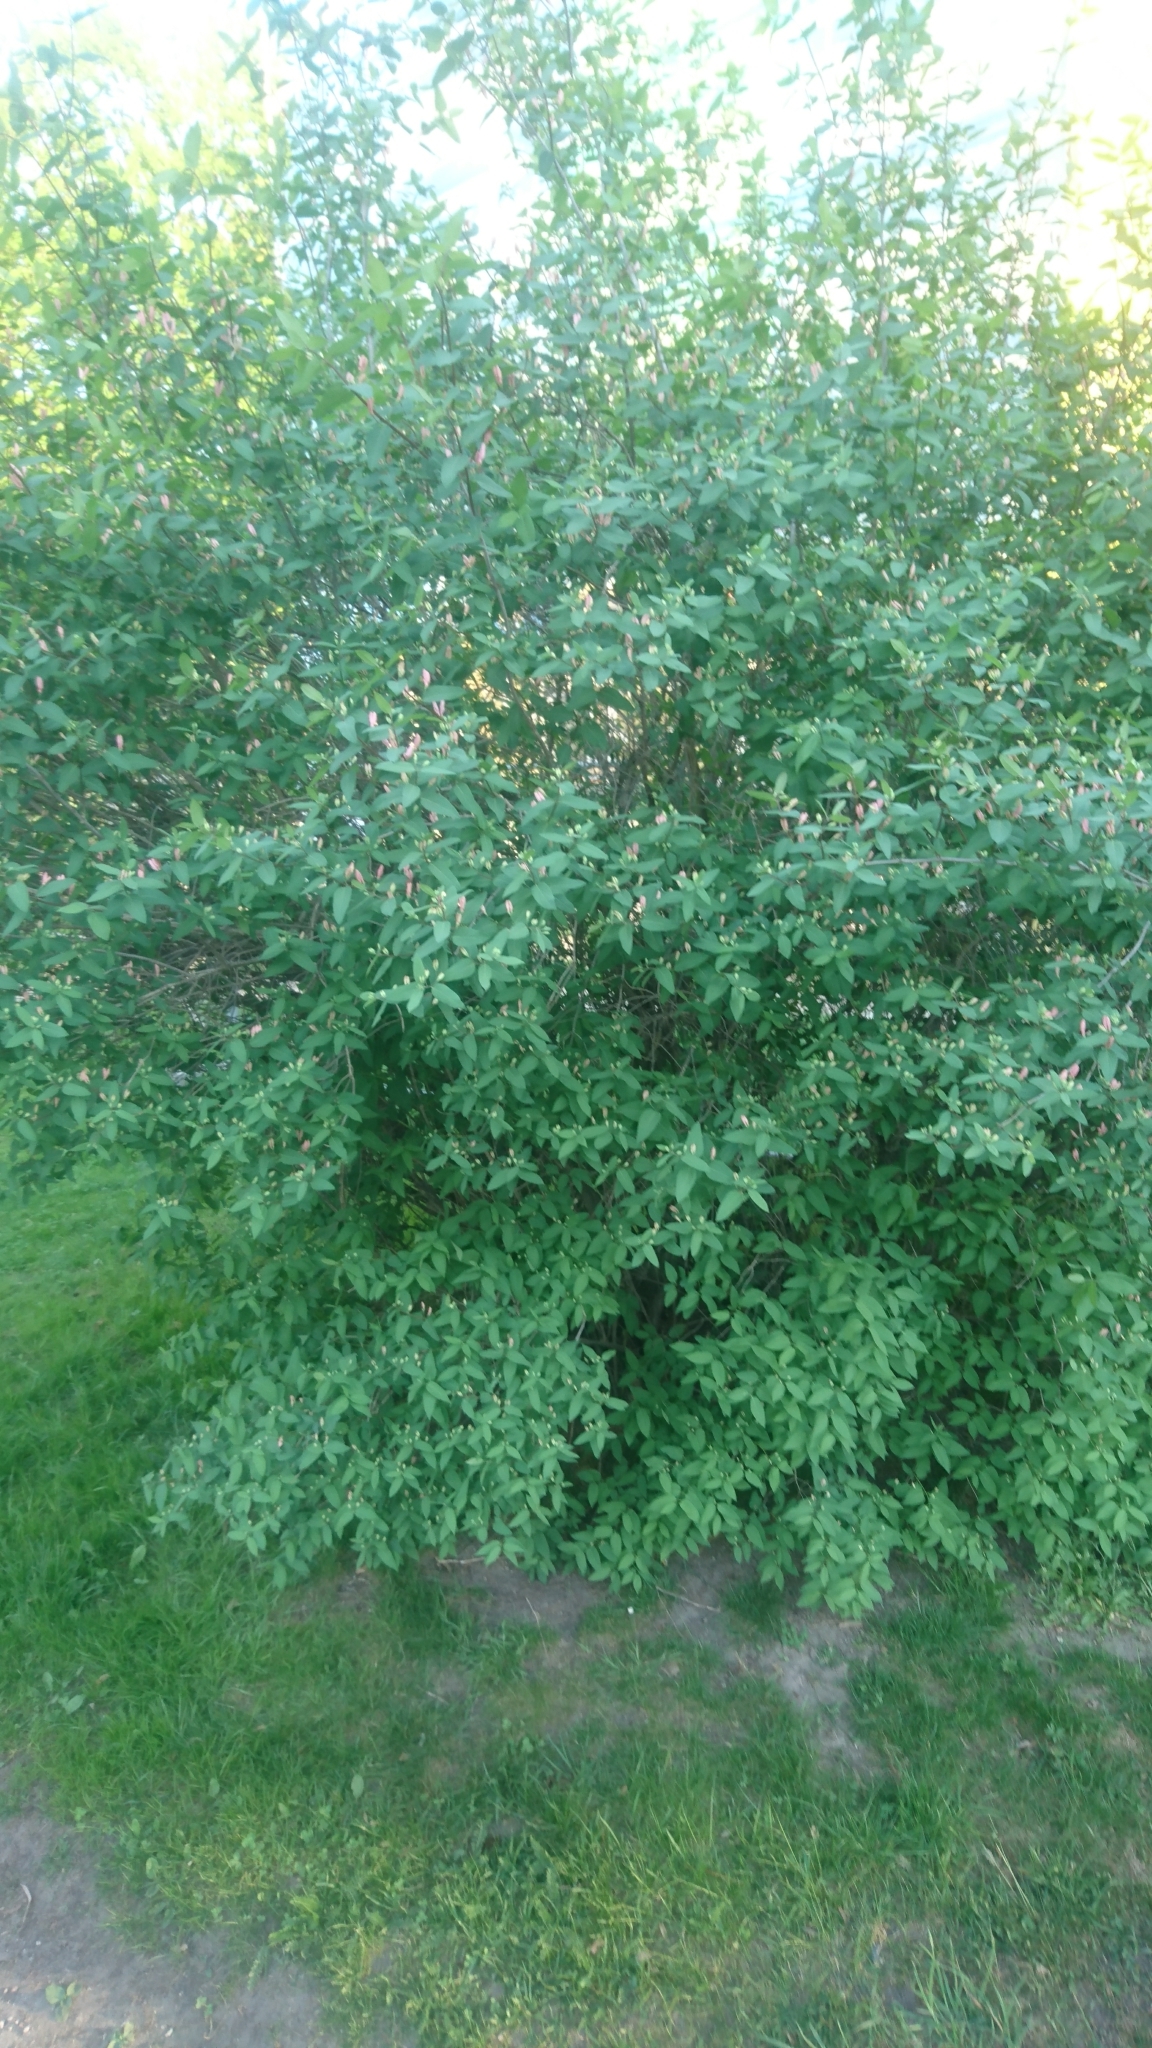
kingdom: Plantae
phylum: Tracheophyta
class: Magnoliopsida
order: Dipsacales
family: Caprifoliaceae
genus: Lonicera
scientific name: Lonicera tatarica
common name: Tatarian honeysuckle
